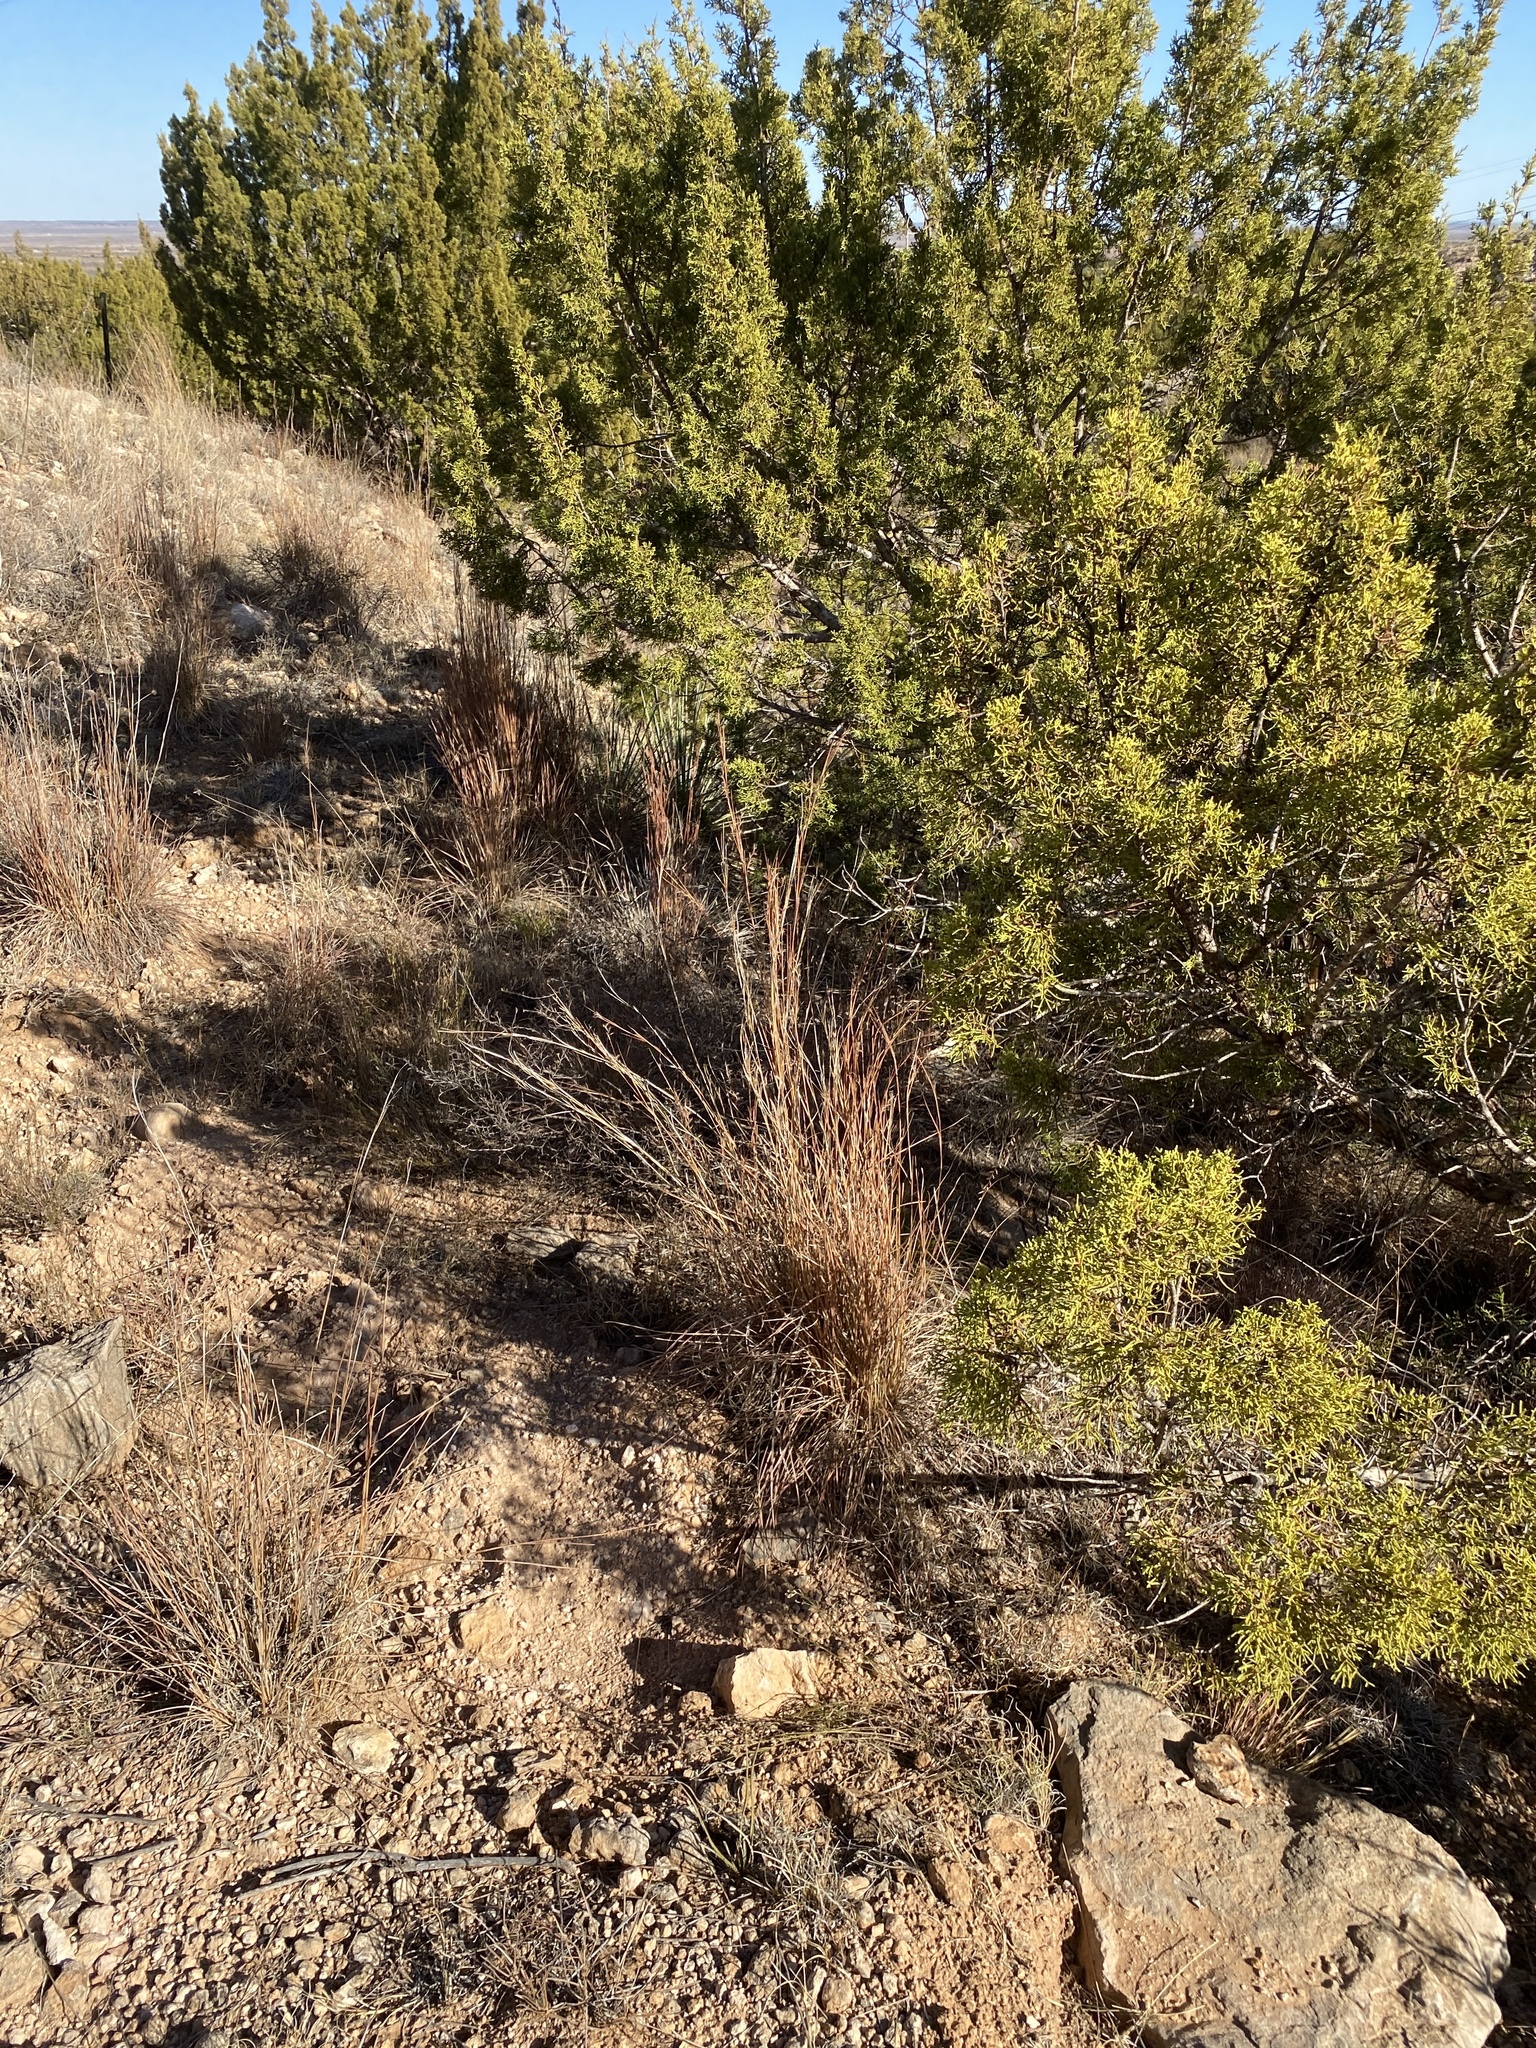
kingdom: Plantae
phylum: Tracheophyta
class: Liliopsida
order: Poales
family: Poaceae
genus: Schizachyrium
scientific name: Schizachyrium scoparium
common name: Little bluestem
